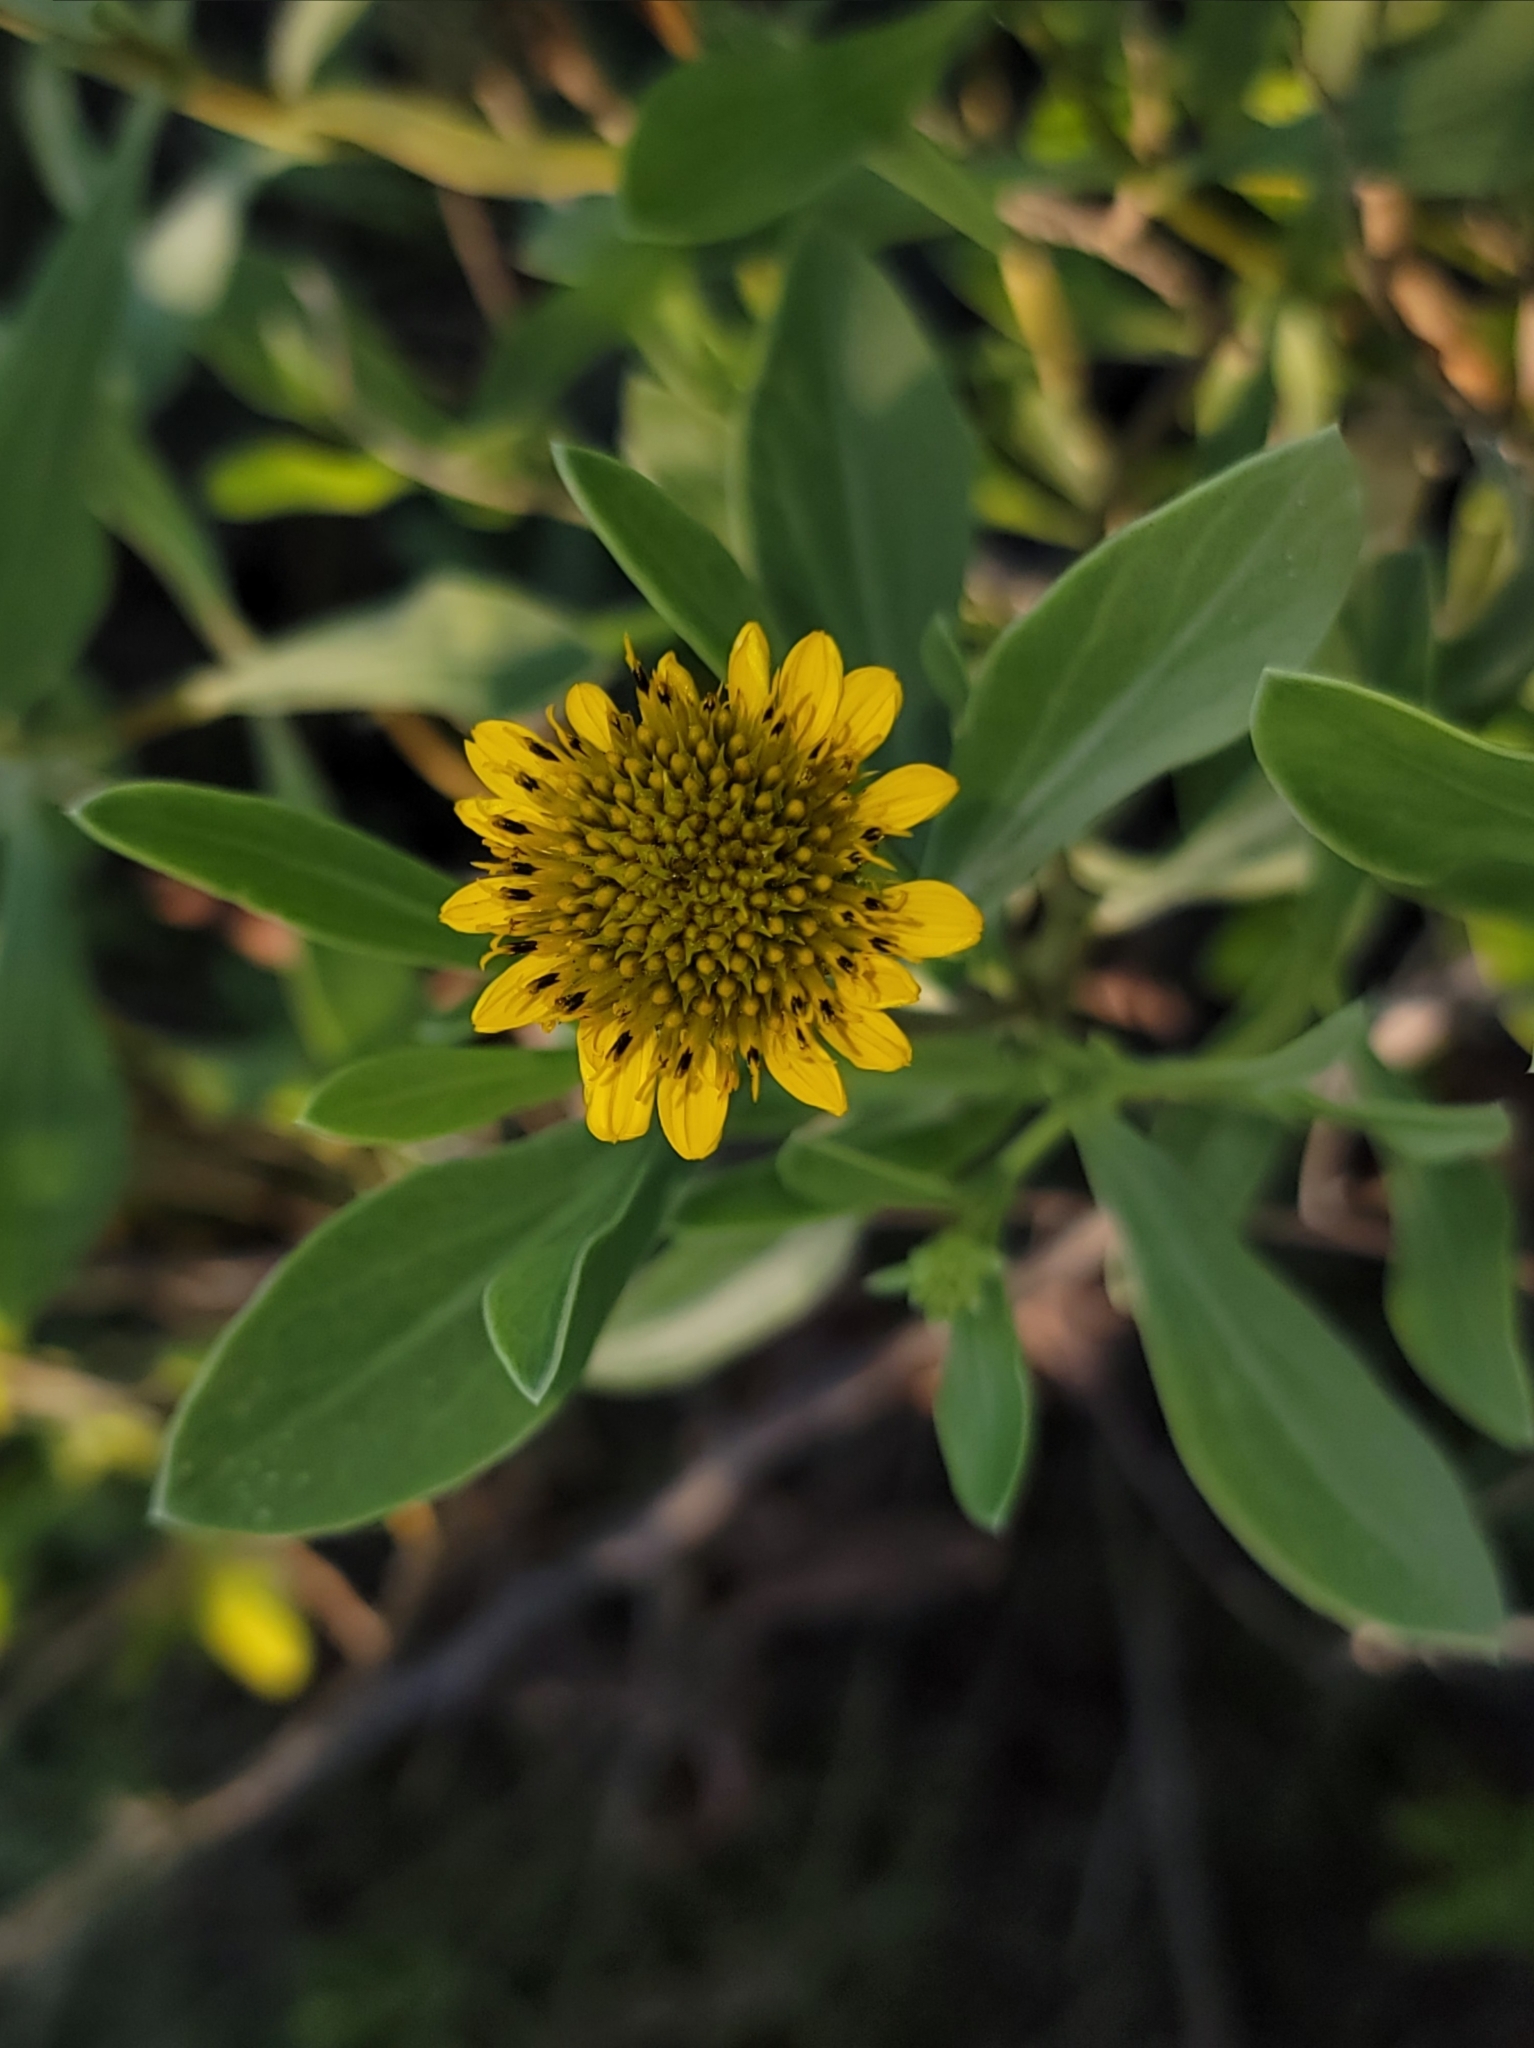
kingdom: Plantae
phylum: Tracheophyta
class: Magnoliopsida
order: Asterales
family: Asteraceae
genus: Borrichia
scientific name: Borrichia frutescens
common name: Sea oxeye
